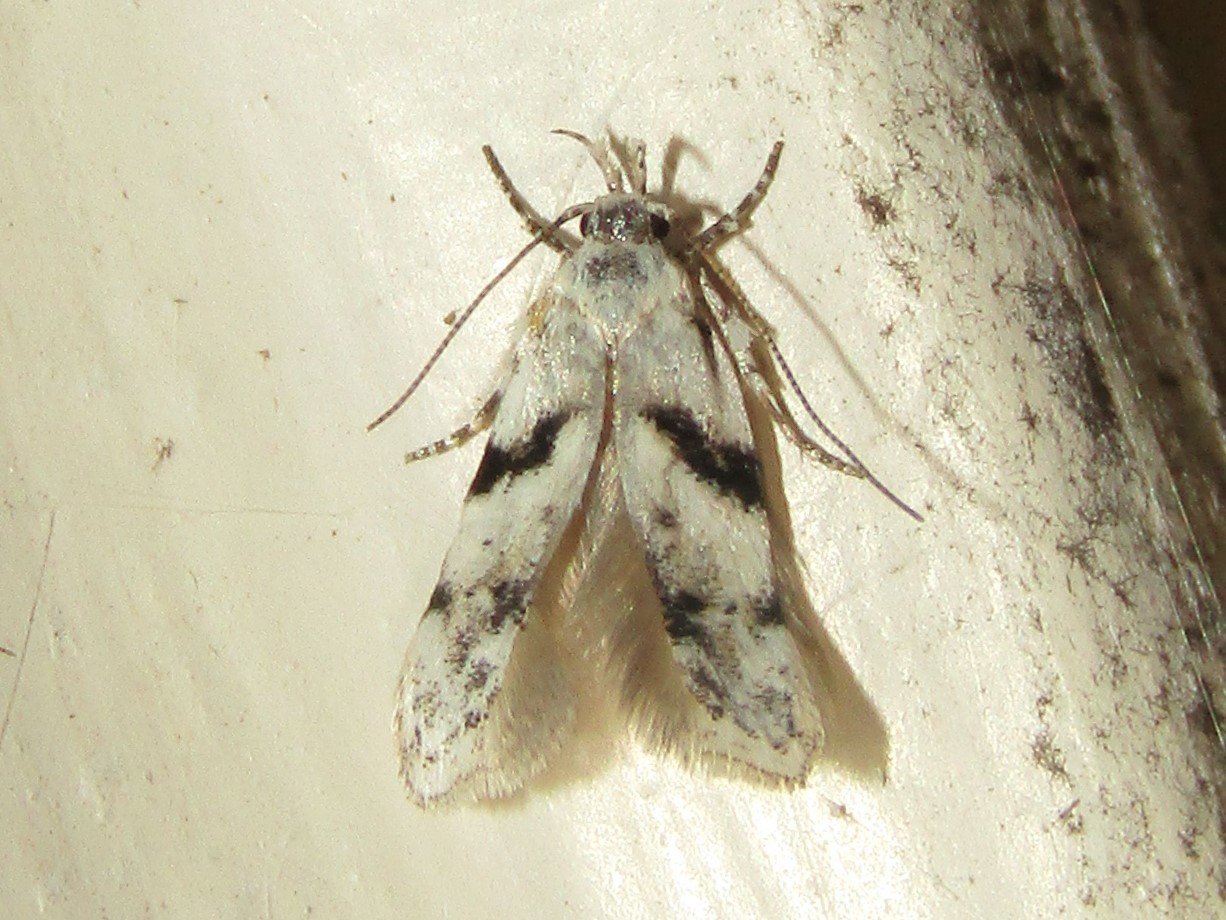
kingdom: Animalia
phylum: Arthropoda
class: Insecta
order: Lepidoptera
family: Gelechiidae
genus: Arogalea
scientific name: Arogalea cristifasciella
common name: White stripe-backed moth
